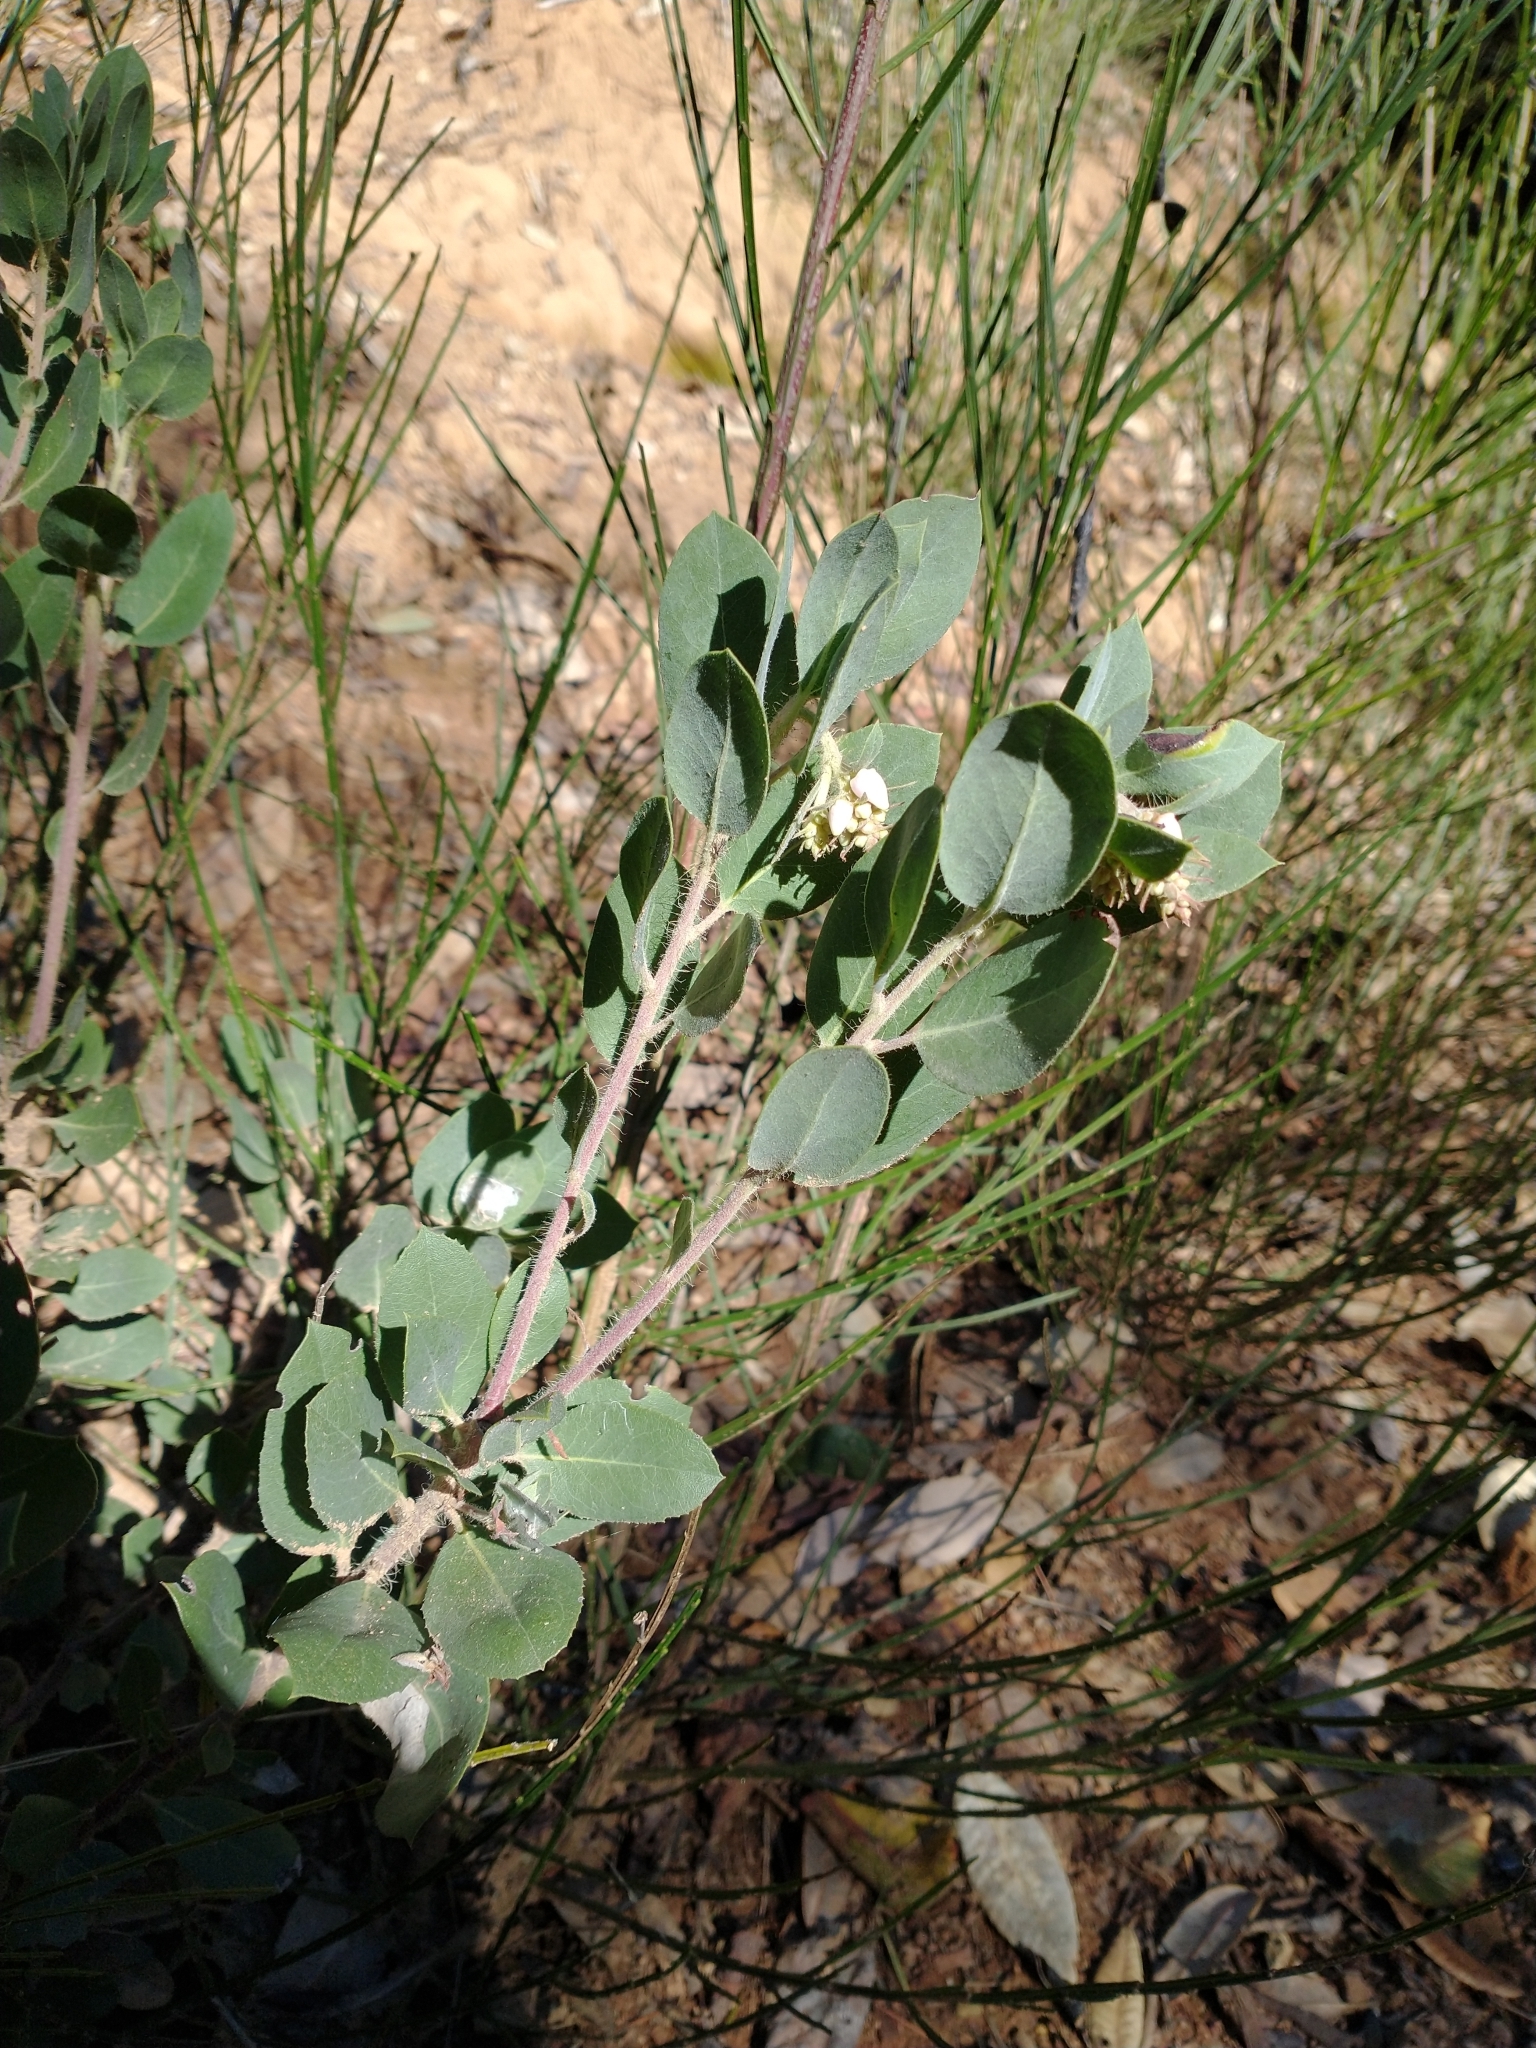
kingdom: Plantae
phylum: Tracheophyta
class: Magnoliopsida
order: Ericales
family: Ericaceae
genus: Arctostaphylos
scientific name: Arctostaphylos columbiana
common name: Bristly bearberry
